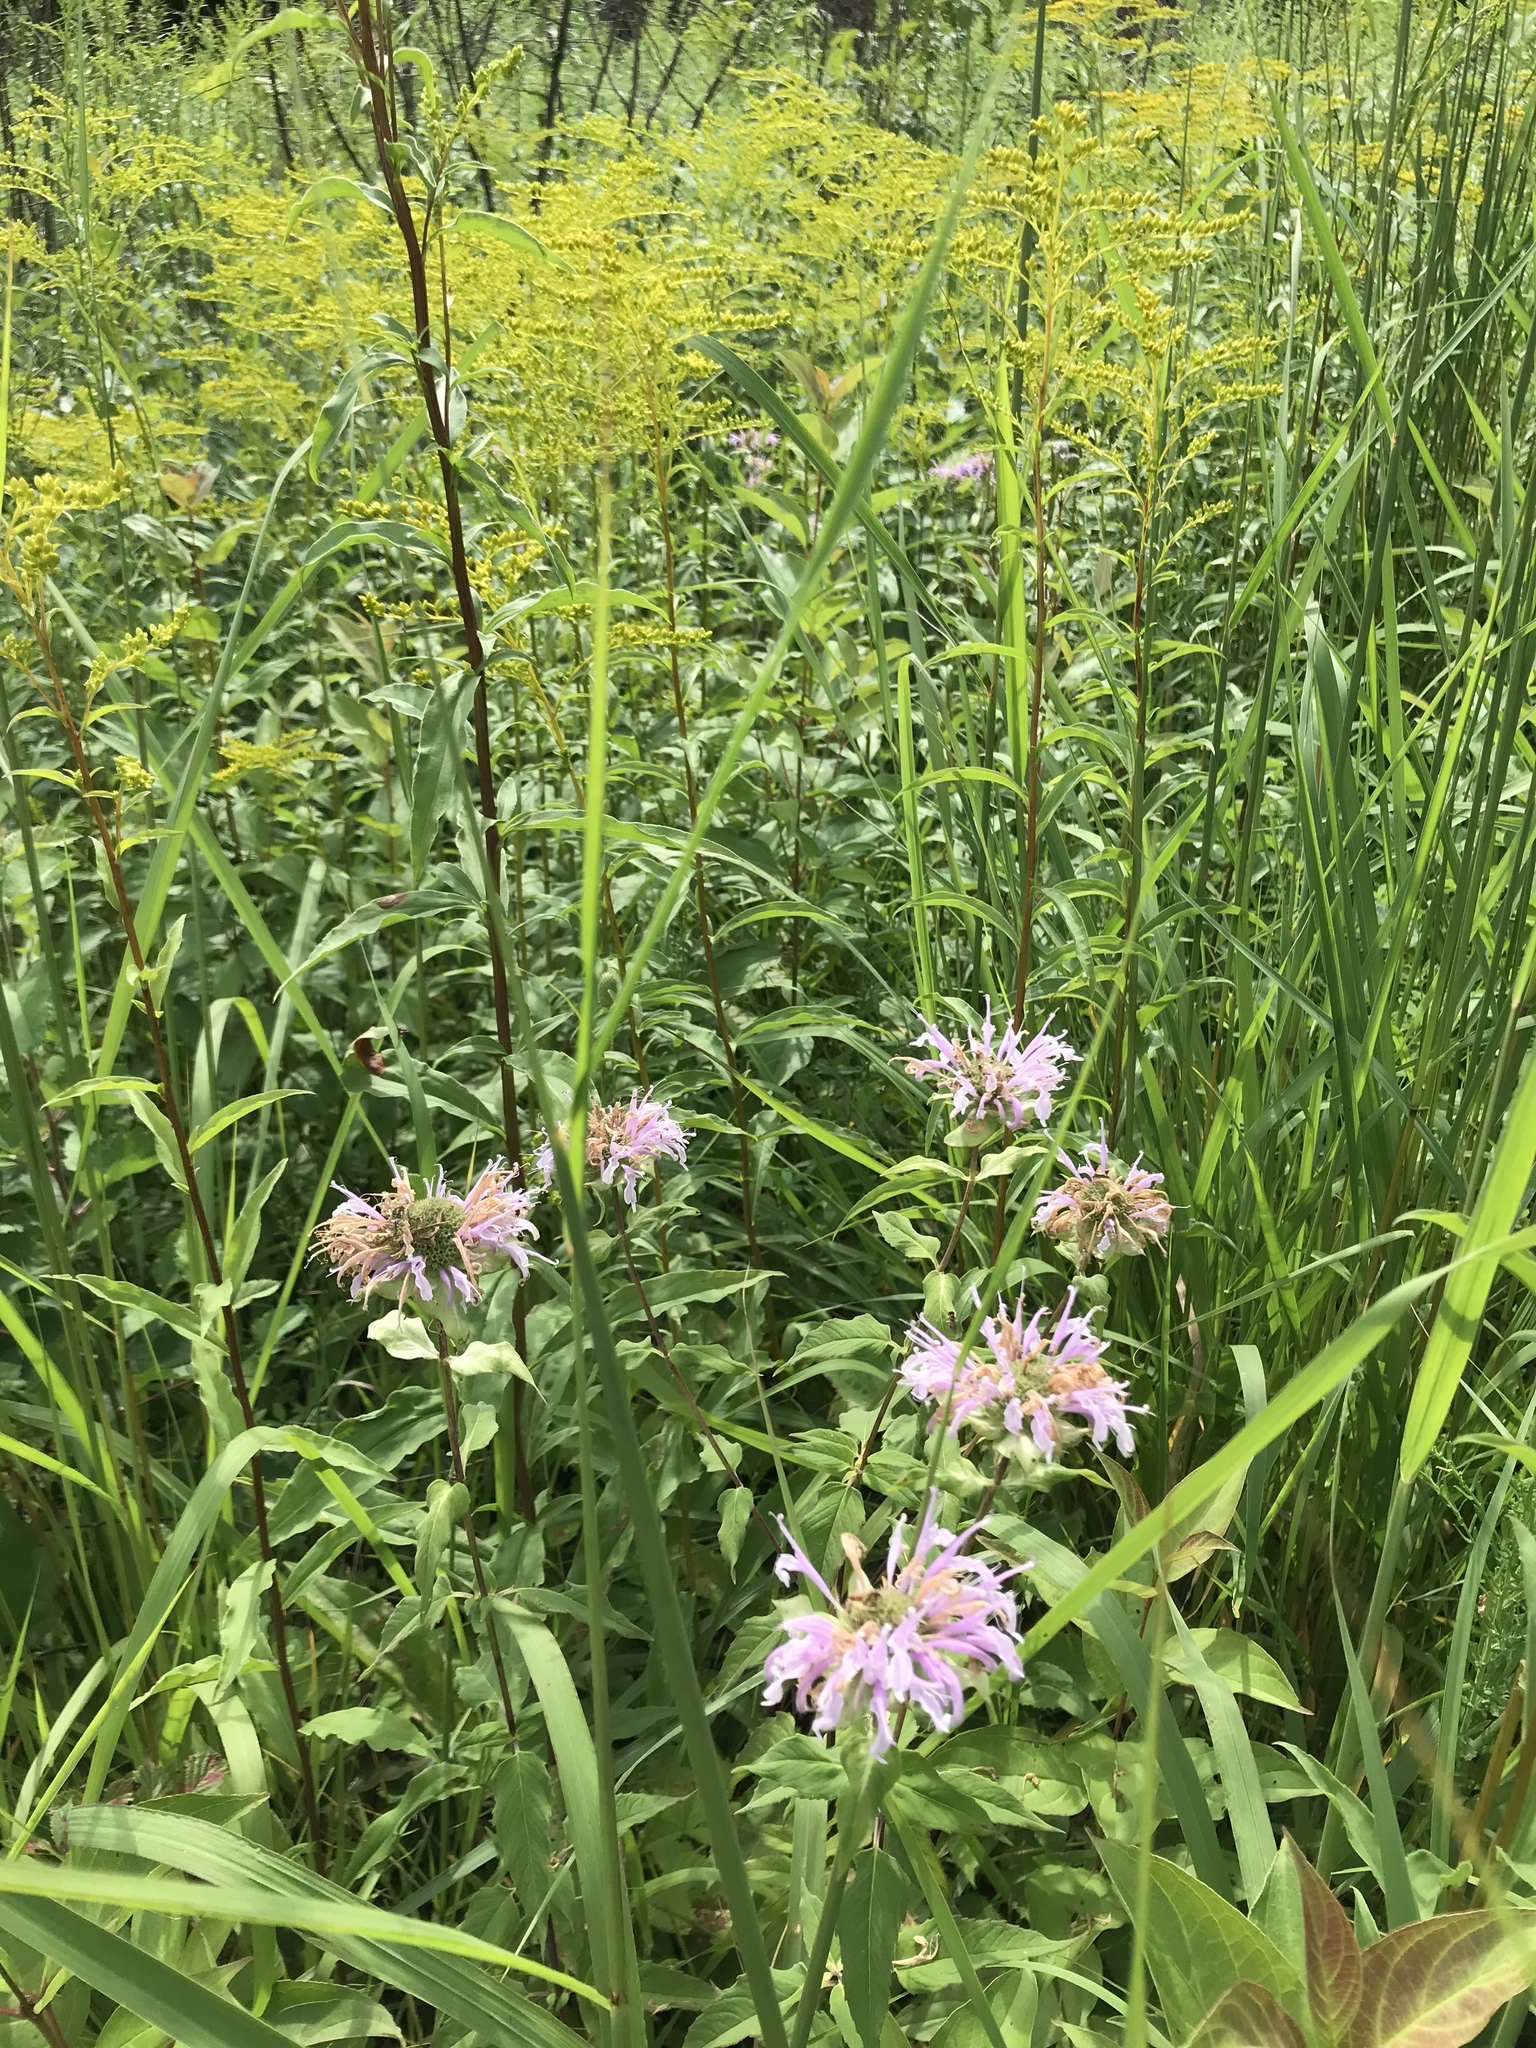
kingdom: Plantae
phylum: Tracheophyta
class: Magnoliopsida
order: Lamiales
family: Lamiaceae
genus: Monarda
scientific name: Monarda fistulosa
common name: Purple beebalm
